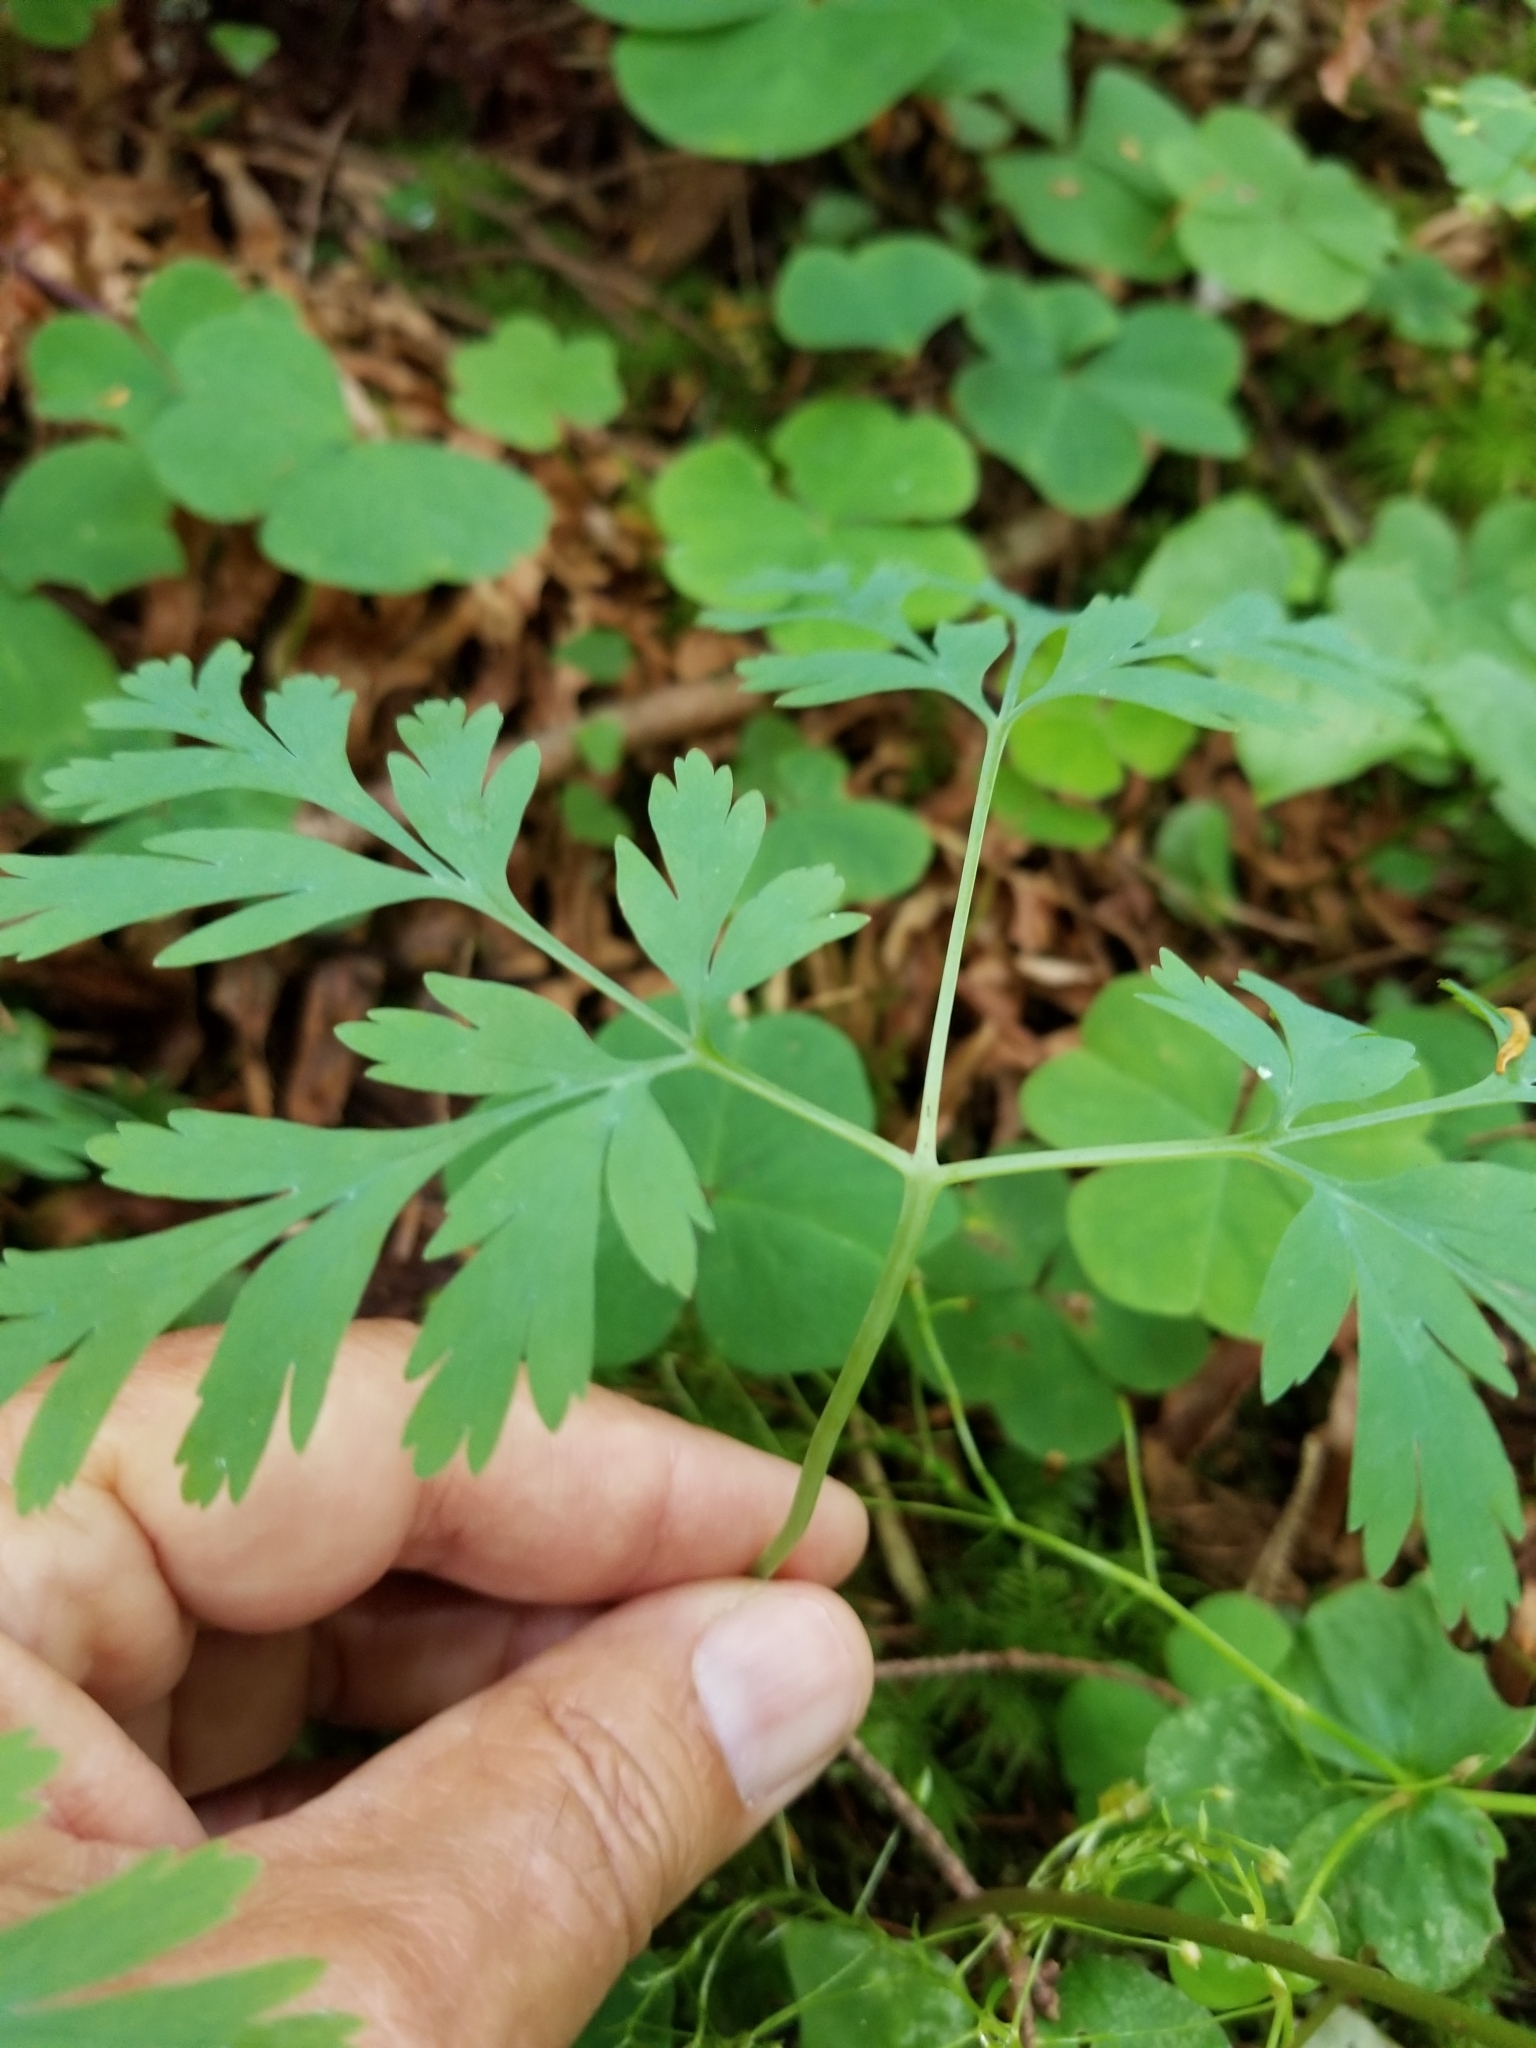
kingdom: Plantae
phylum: Tracheophyta
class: Magnoliopsida
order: Ranunculales
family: Papaveraceae
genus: Dicentra
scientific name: Dicentra formosa
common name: Bleeding-heart
